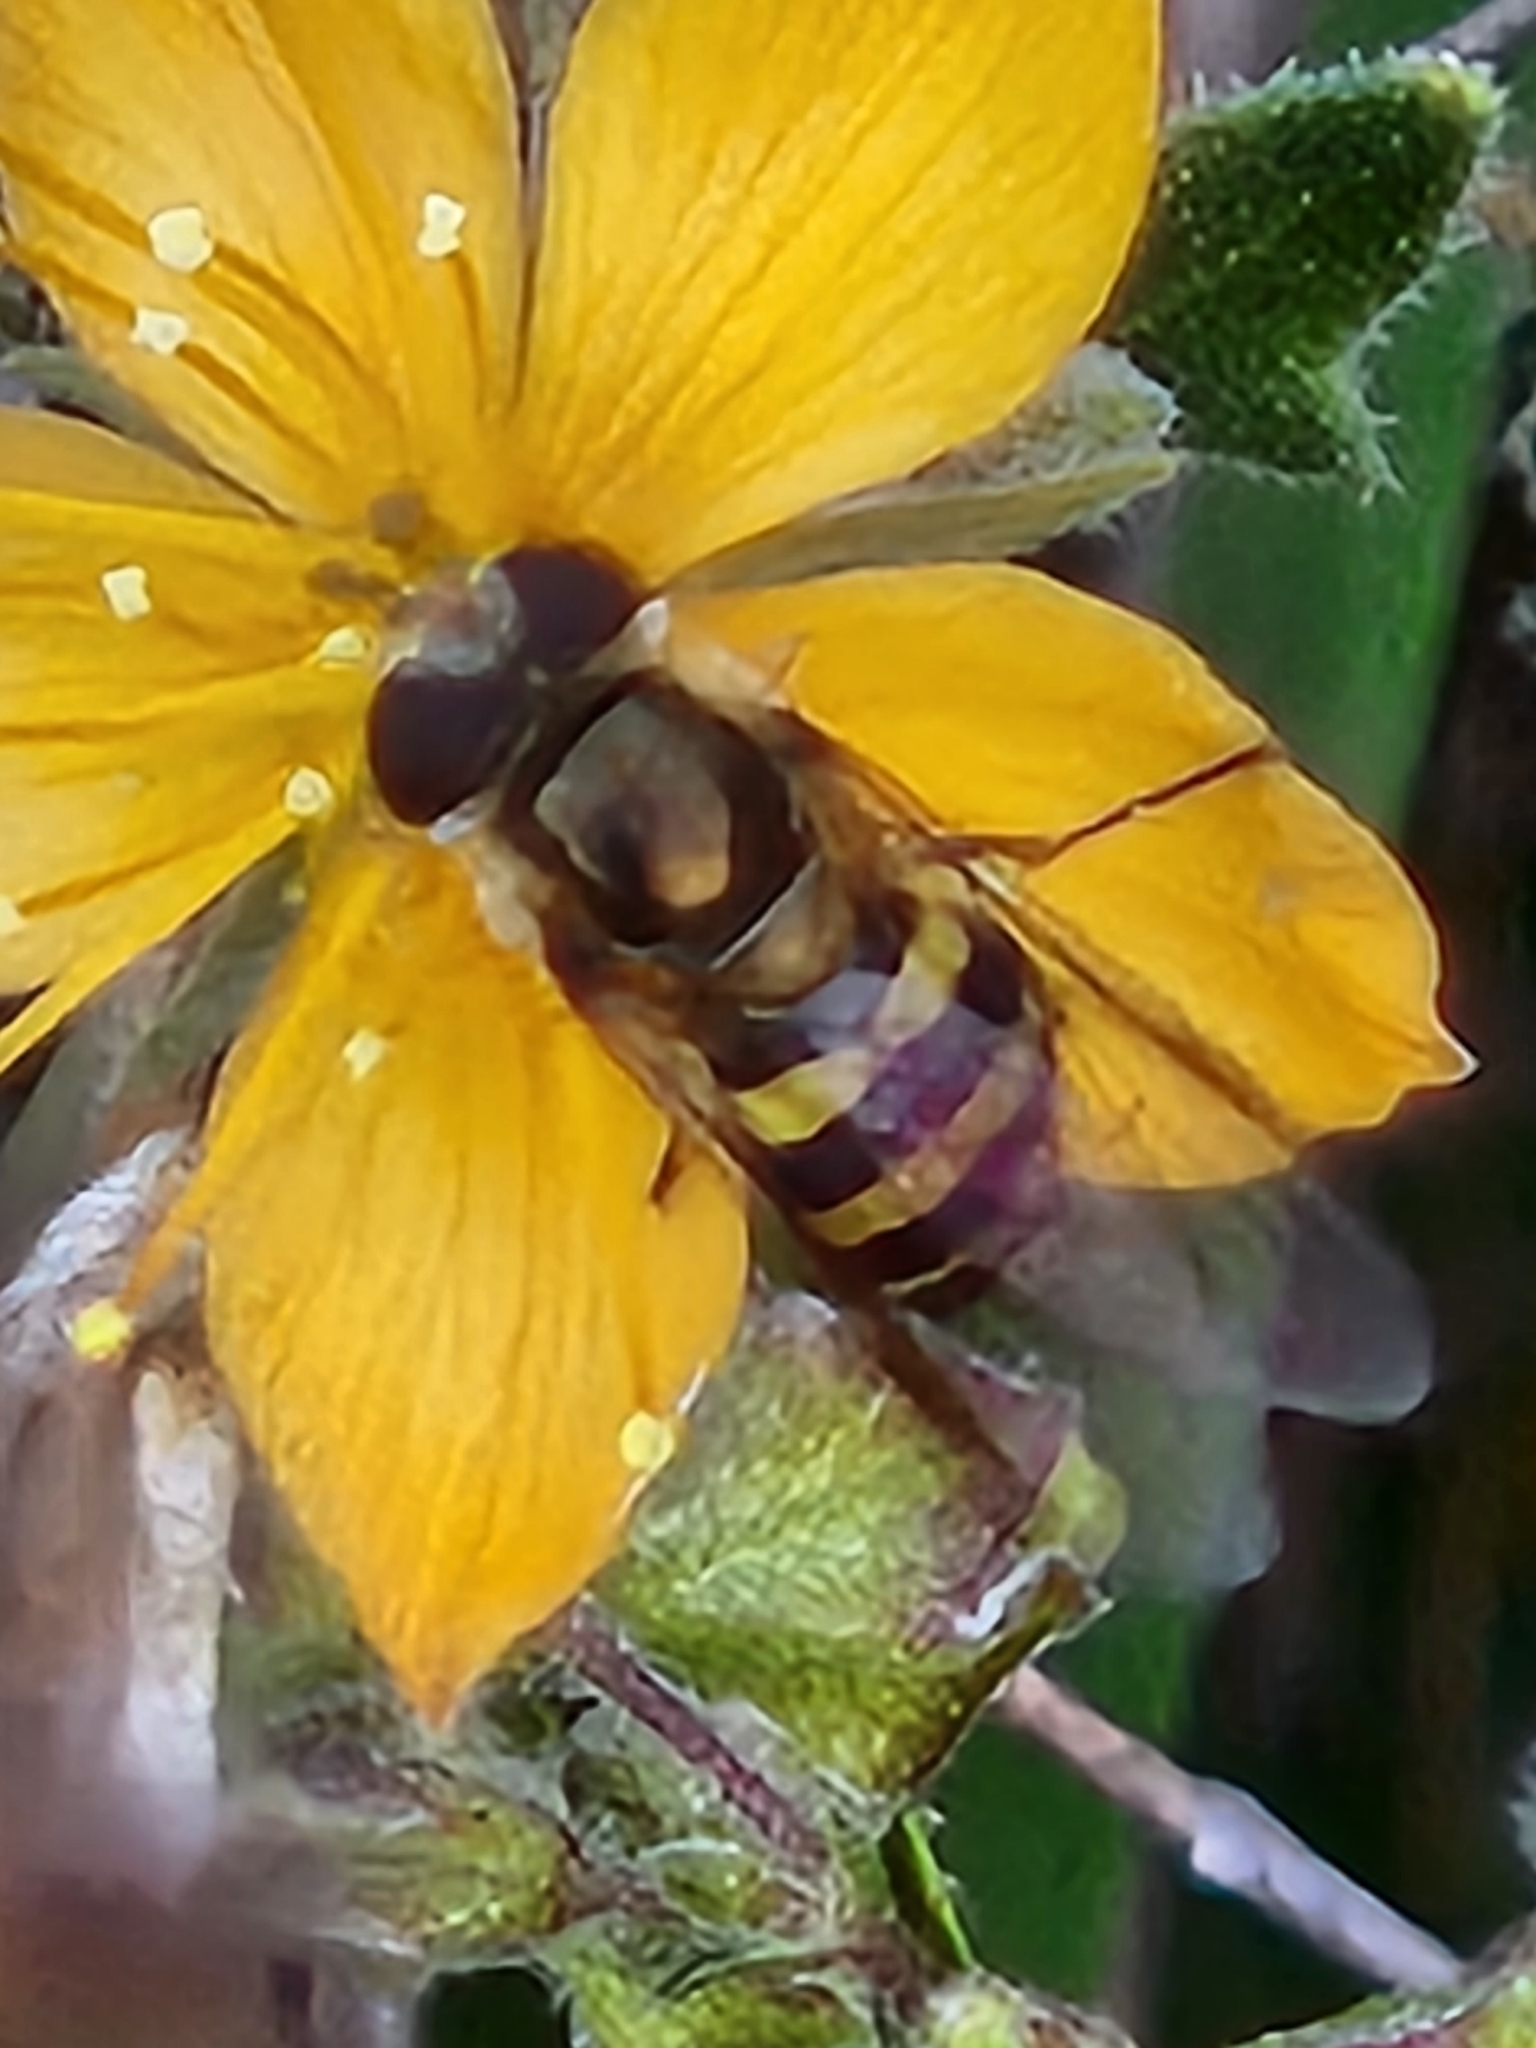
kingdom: Animalia
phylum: Arthropoda
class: Insecta
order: Diptera
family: Syrphidae
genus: Eupeodes
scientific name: Eupeodes
